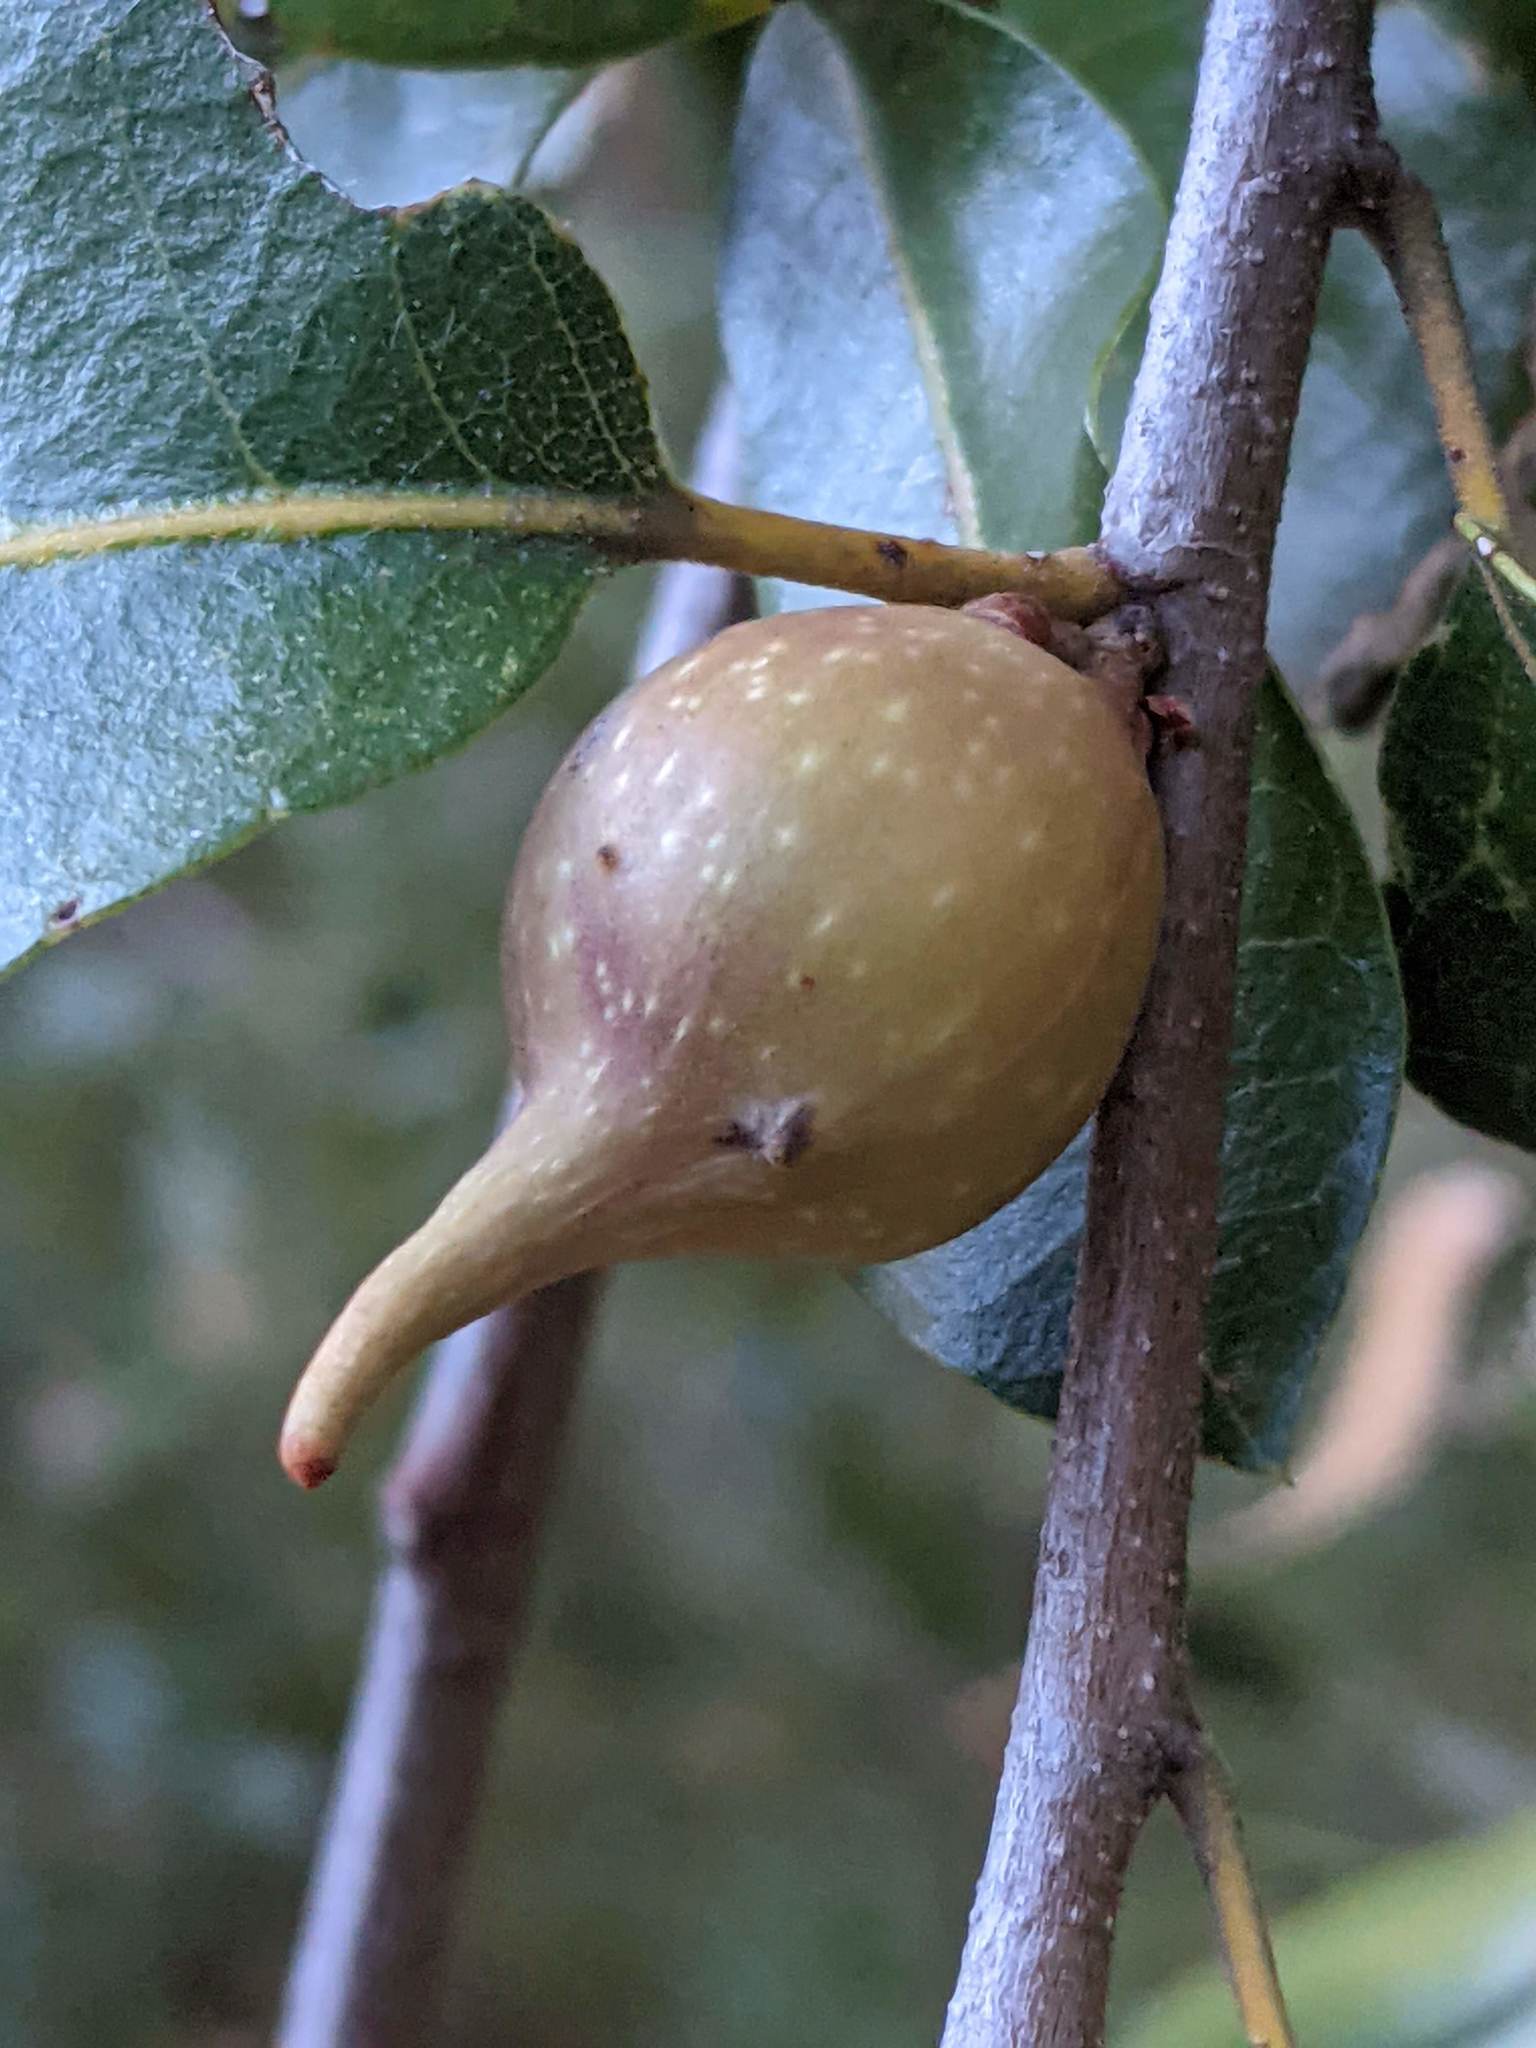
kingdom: Animalia
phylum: Arthropoda
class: Insecta
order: Hymenoptera
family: Cynipidae
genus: Heteroecus
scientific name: Heteroecus pacificus
